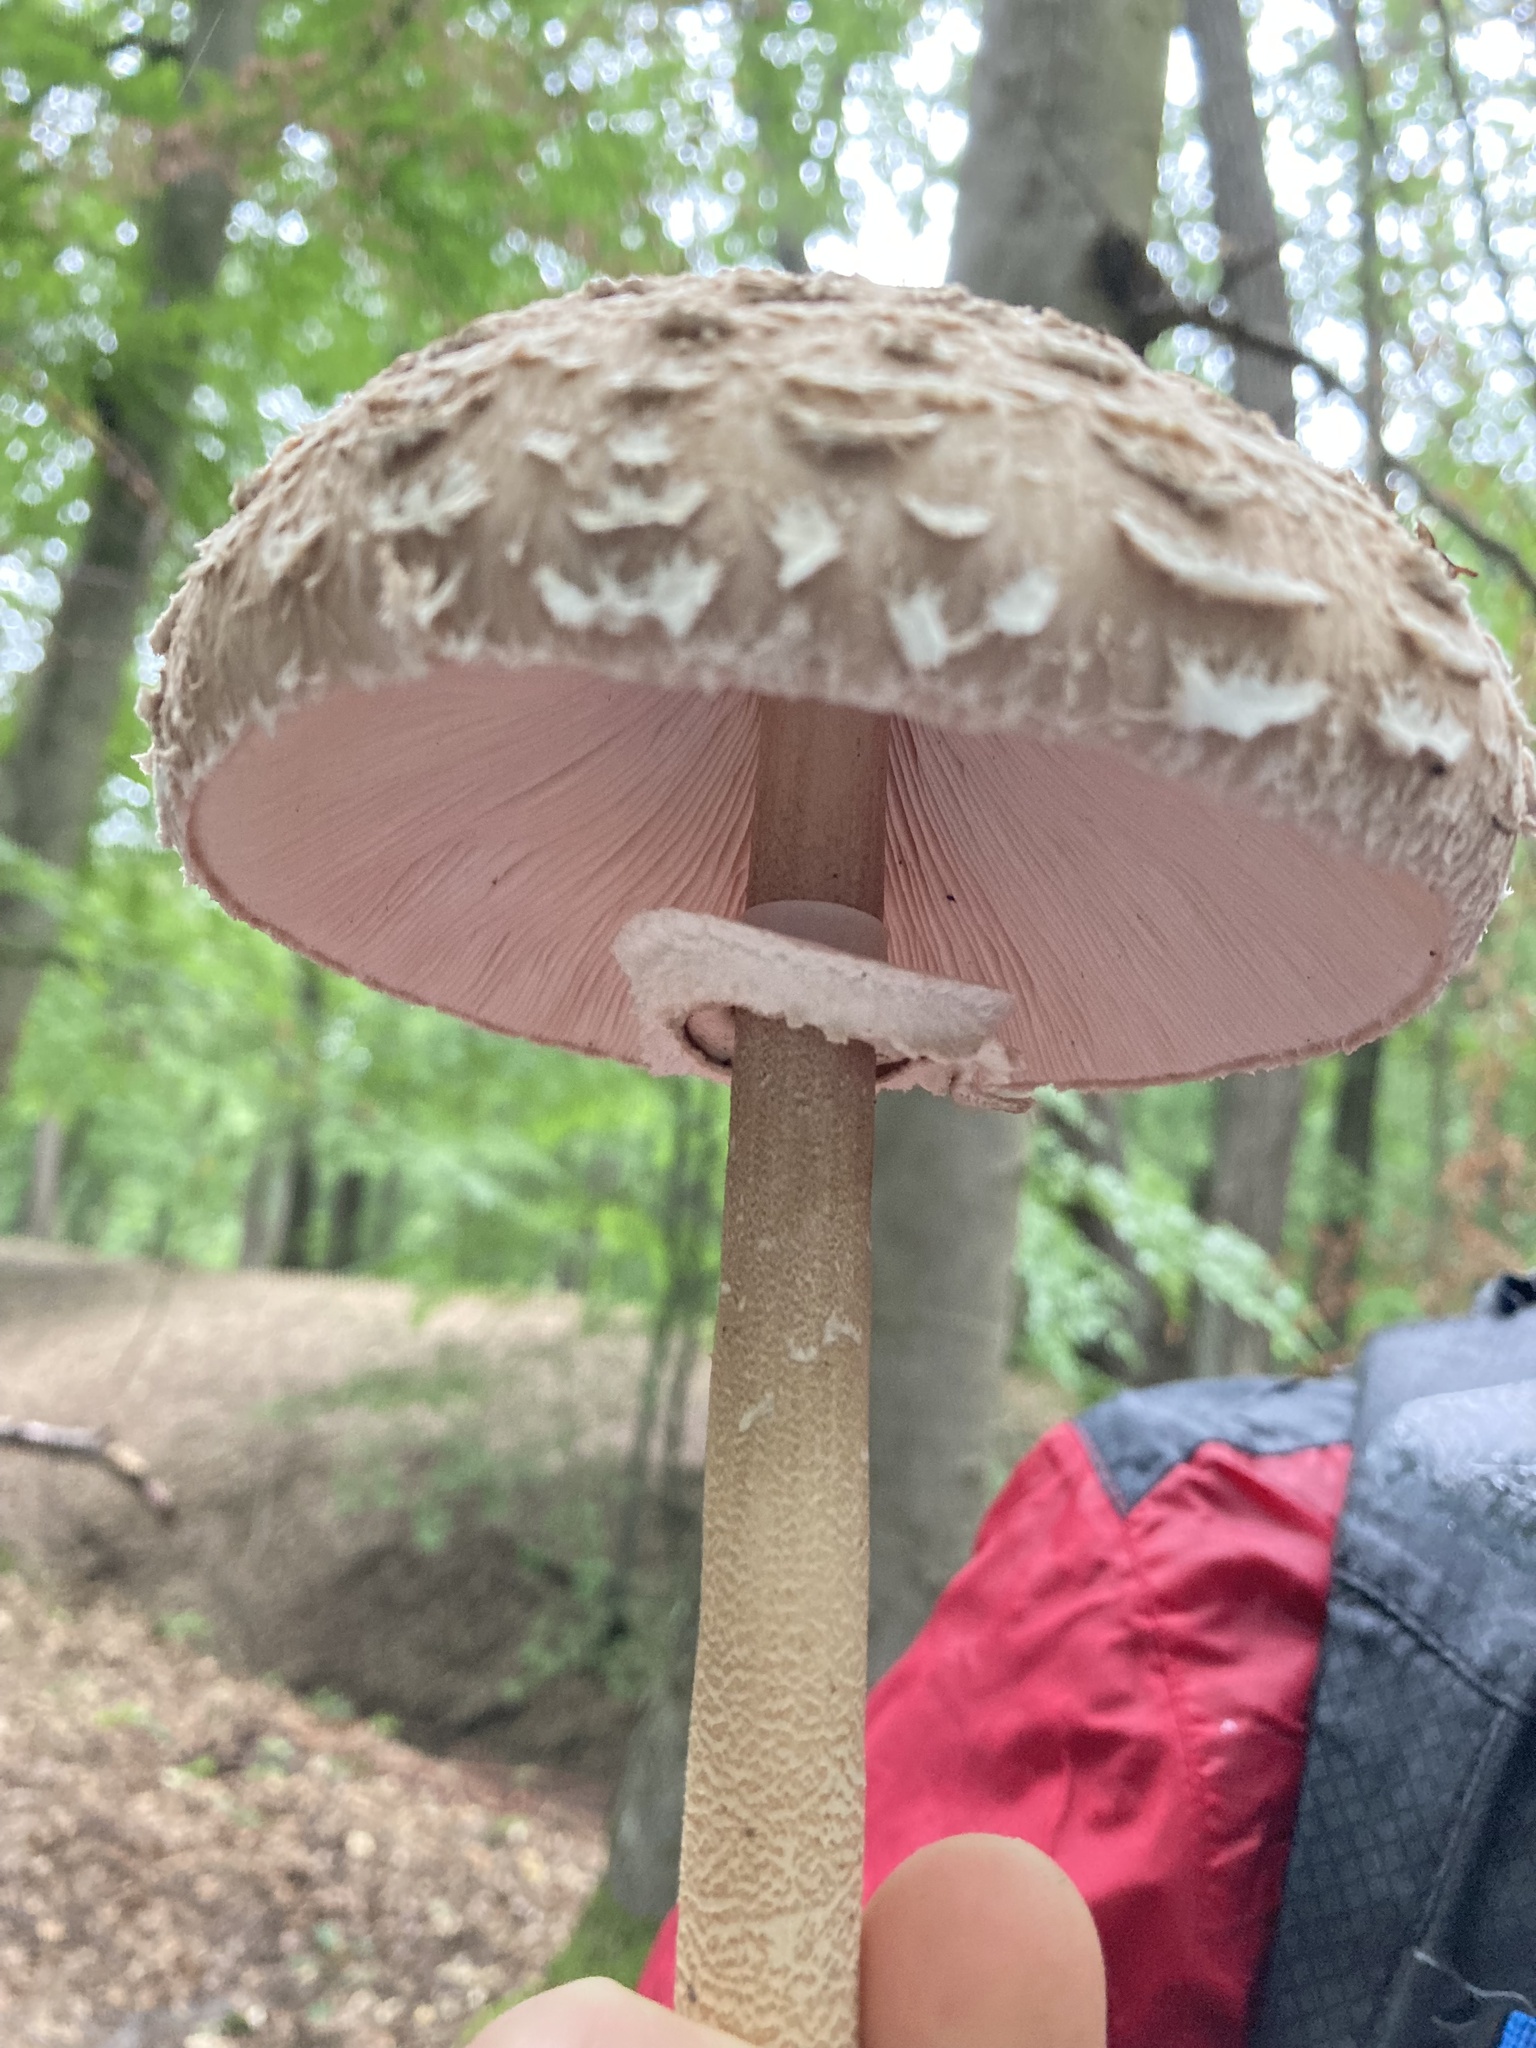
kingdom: Fungi
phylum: Basidiomycota
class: Agaricomycetes
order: Agaricales
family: Agaricaceae
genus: Macrolepiota
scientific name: Macrolepiota procera
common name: Parasol
